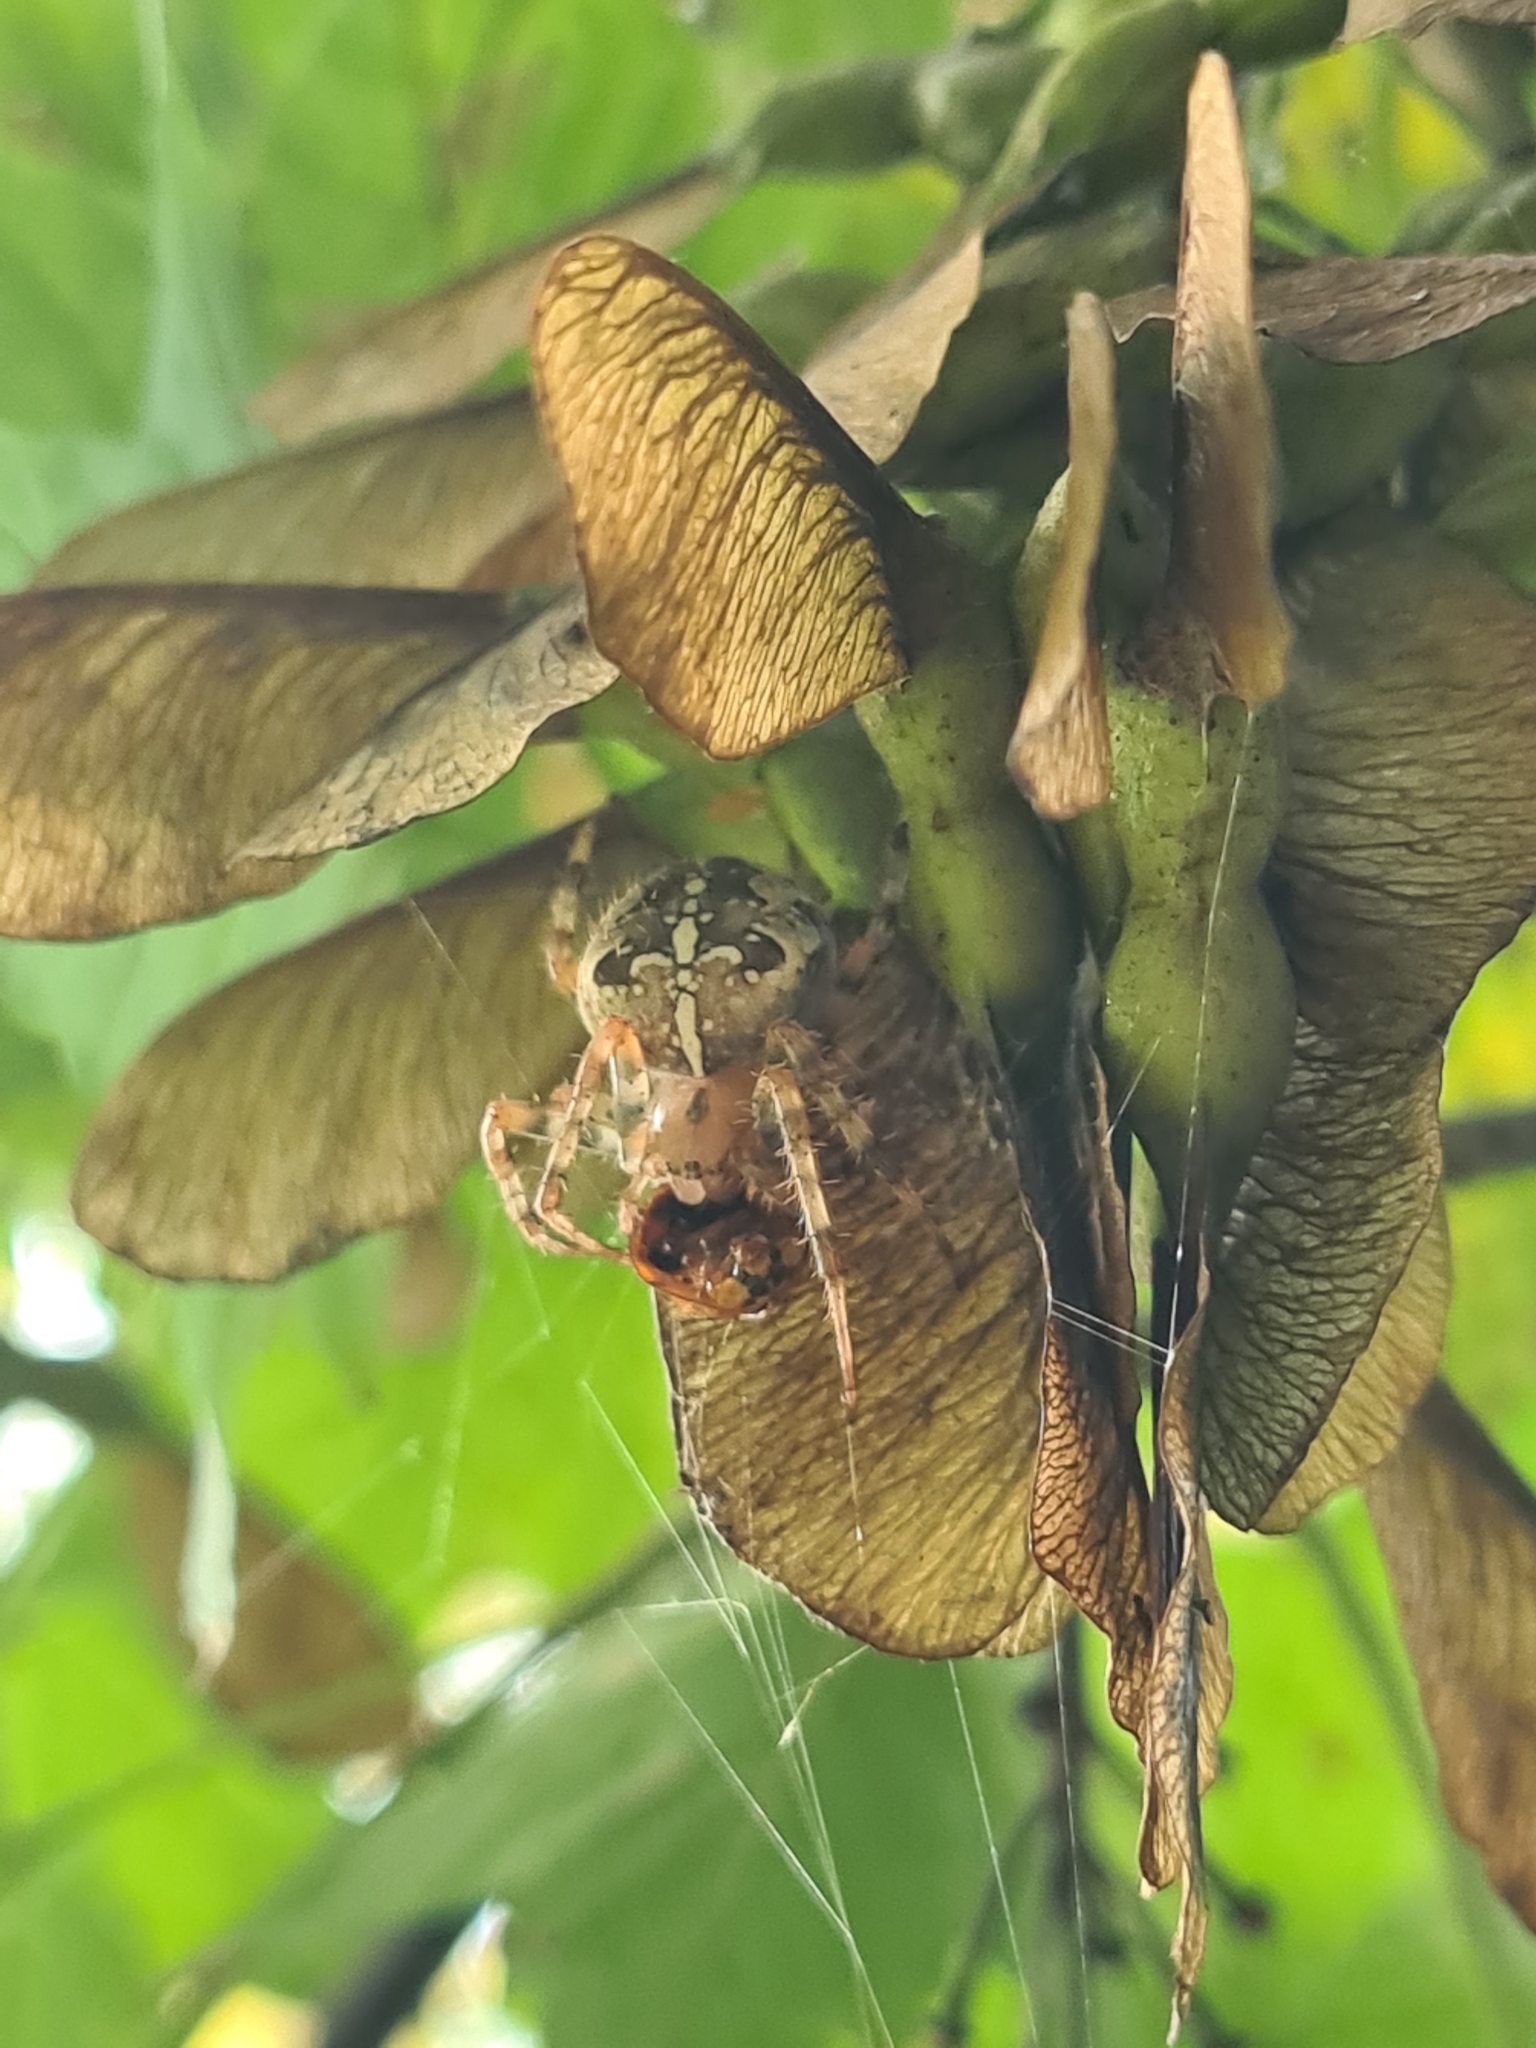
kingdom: Animalia
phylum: Arthropoda
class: Arachnida
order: Araneae
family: Araneidae
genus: Araneus
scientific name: Araneus diadematus
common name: Cross orbweaver
